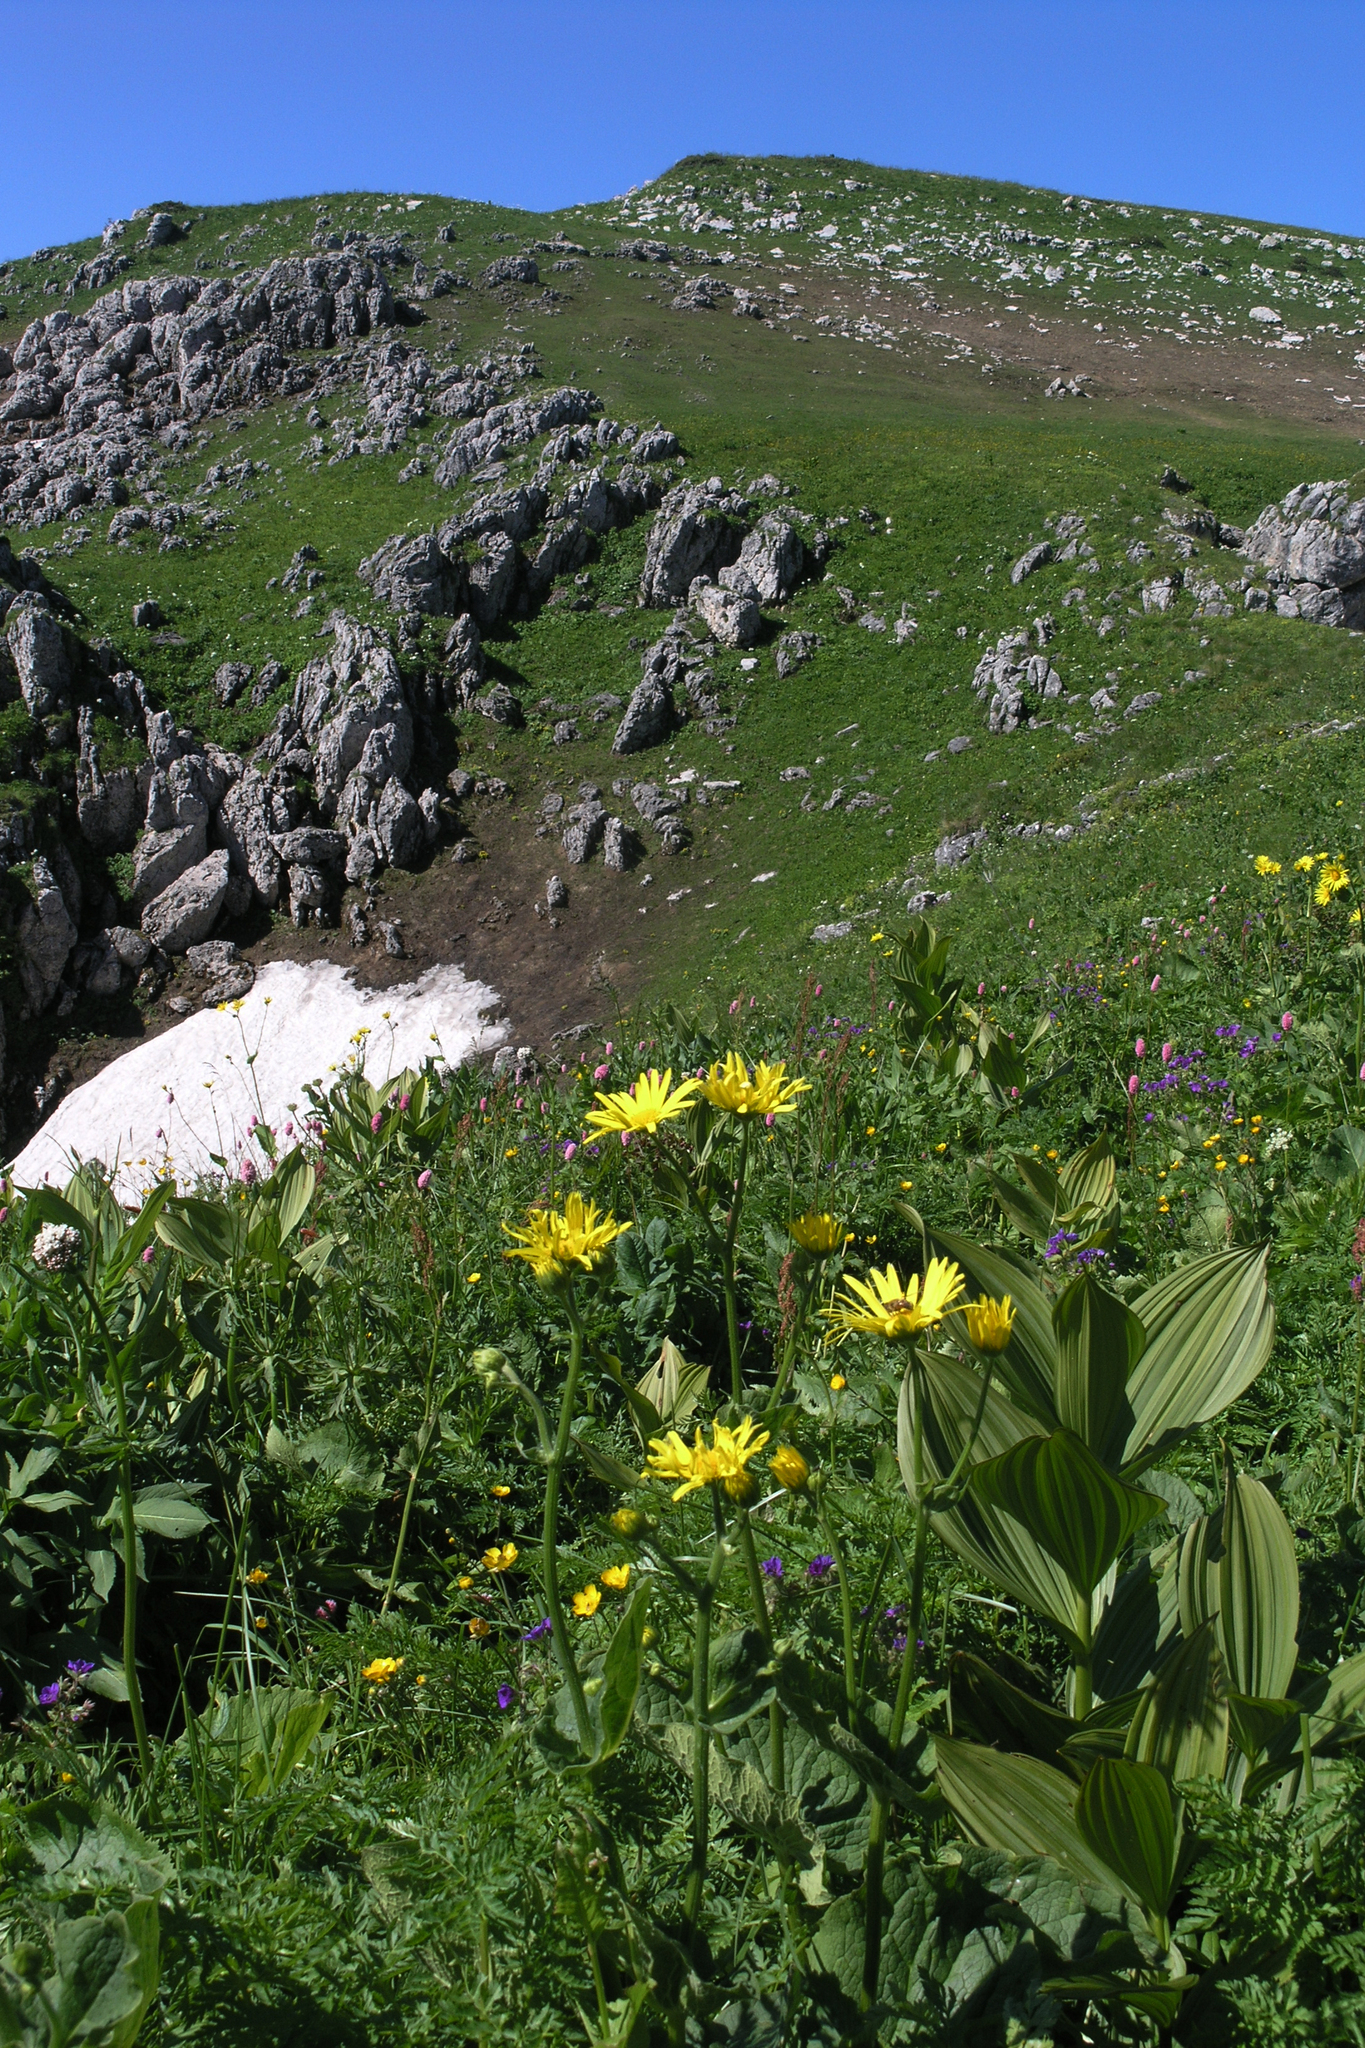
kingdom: Plantae
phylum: Tracheophyta
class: Liliopsida
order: Liliales
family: Melanthiaceae
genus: Veratrum
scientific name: Veratrum lobelianum
